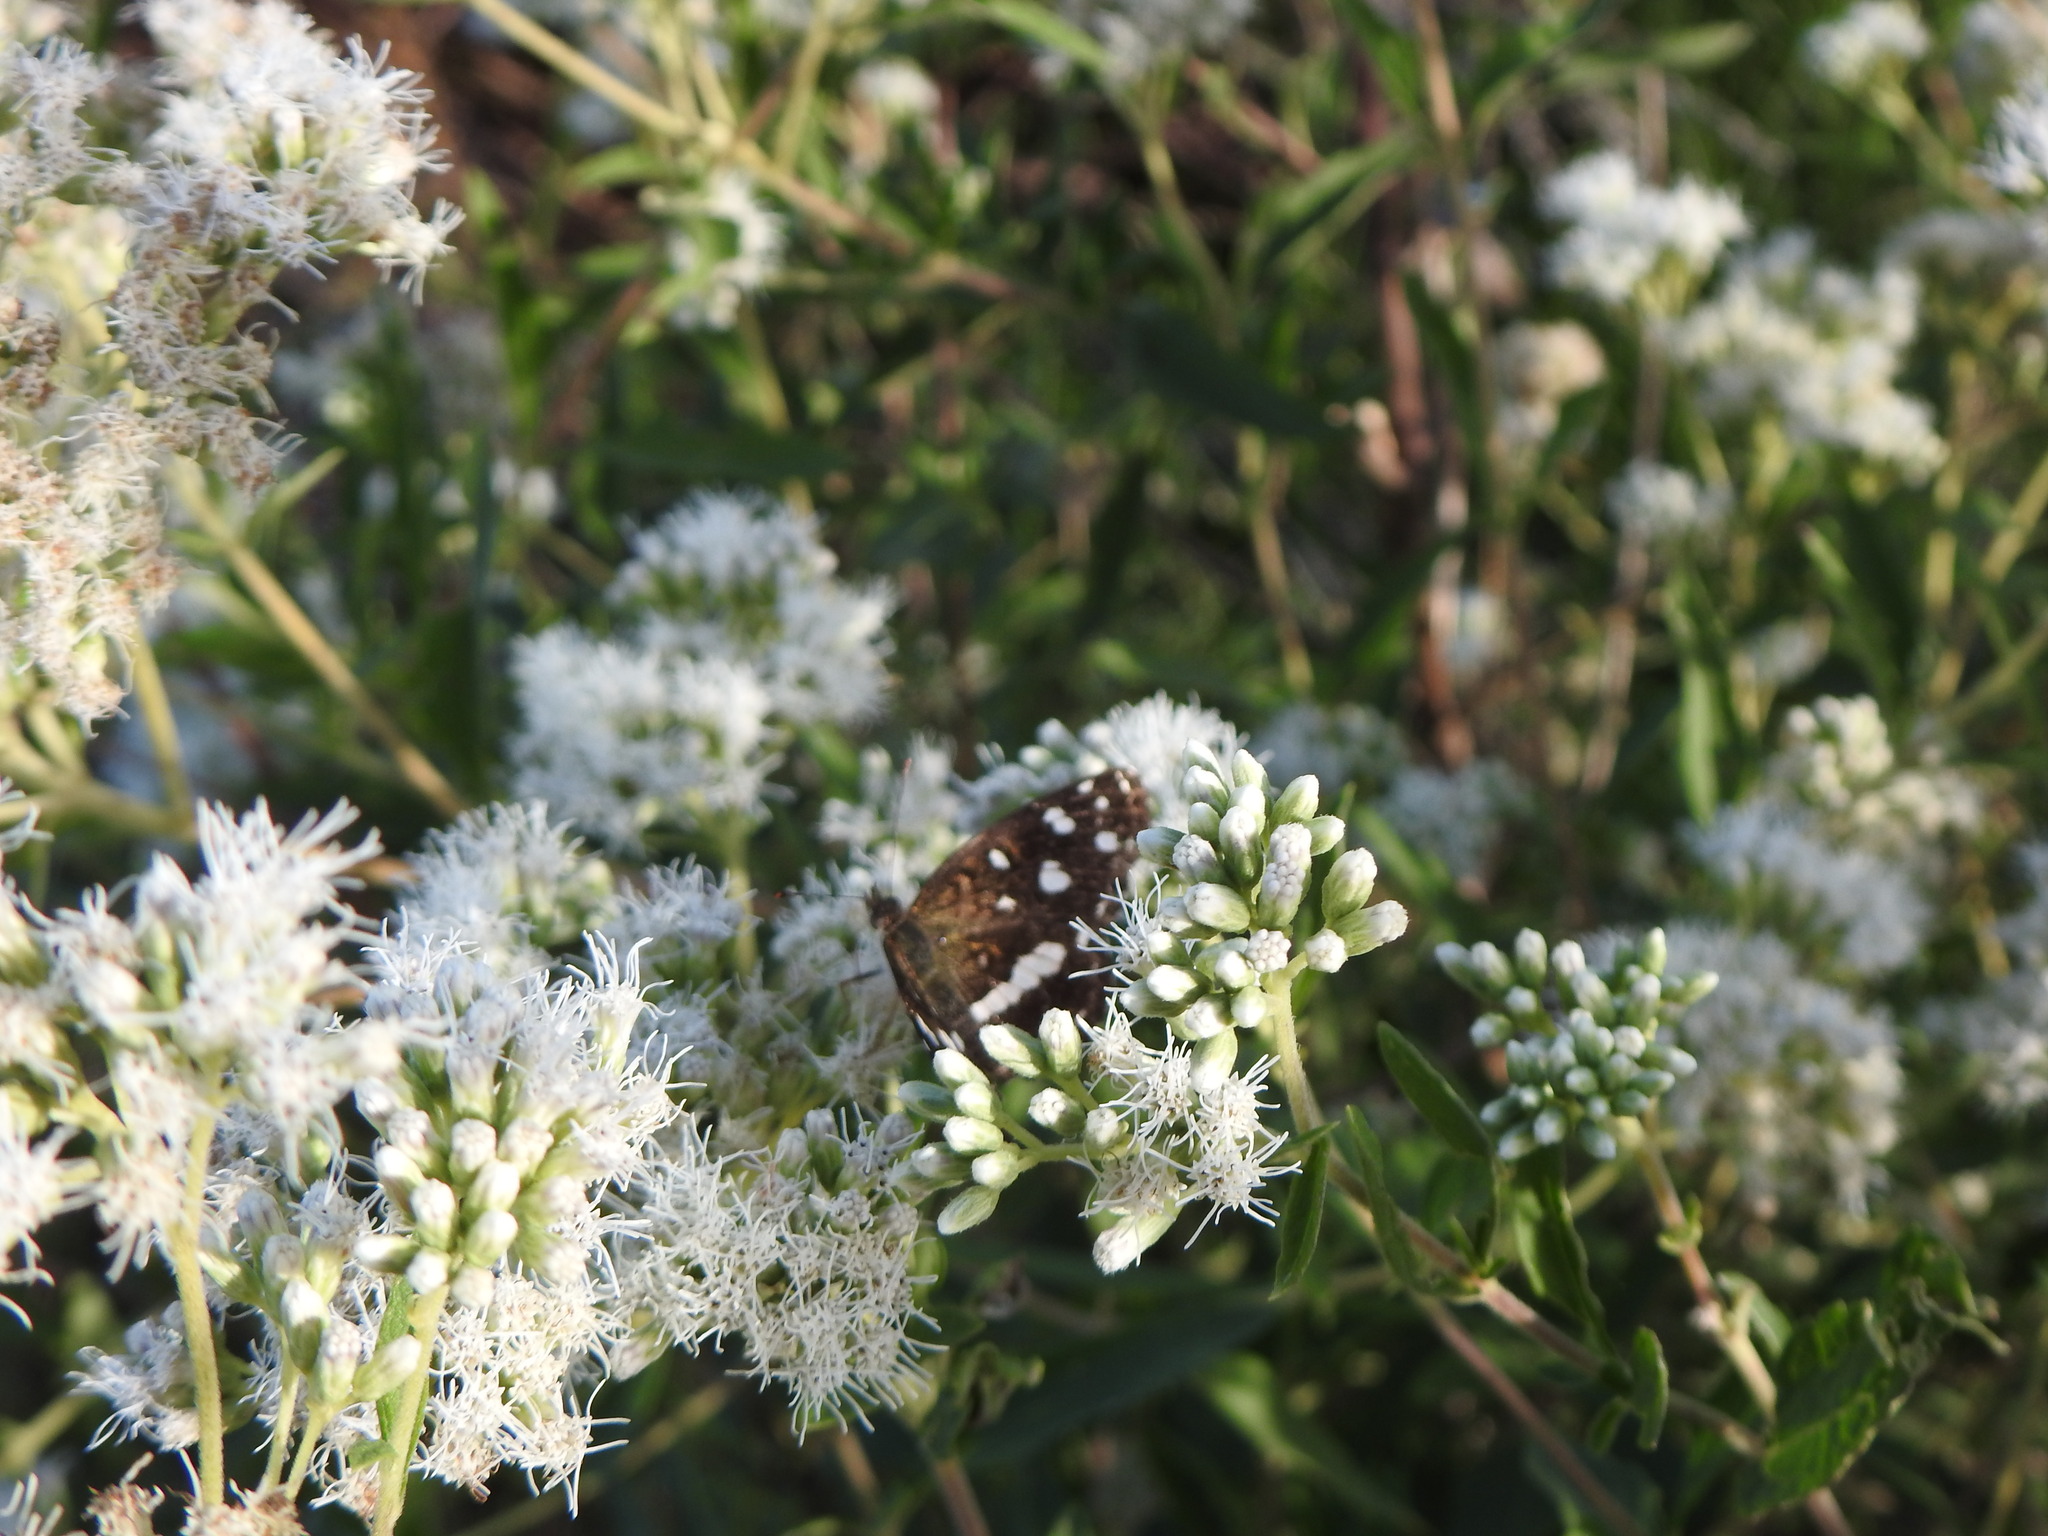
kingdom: Animalia
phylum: Arthropoda
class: Insecta
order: Lepidoptera
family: Nymphalidae
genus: Ortilia
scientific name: Ortilia ithra
